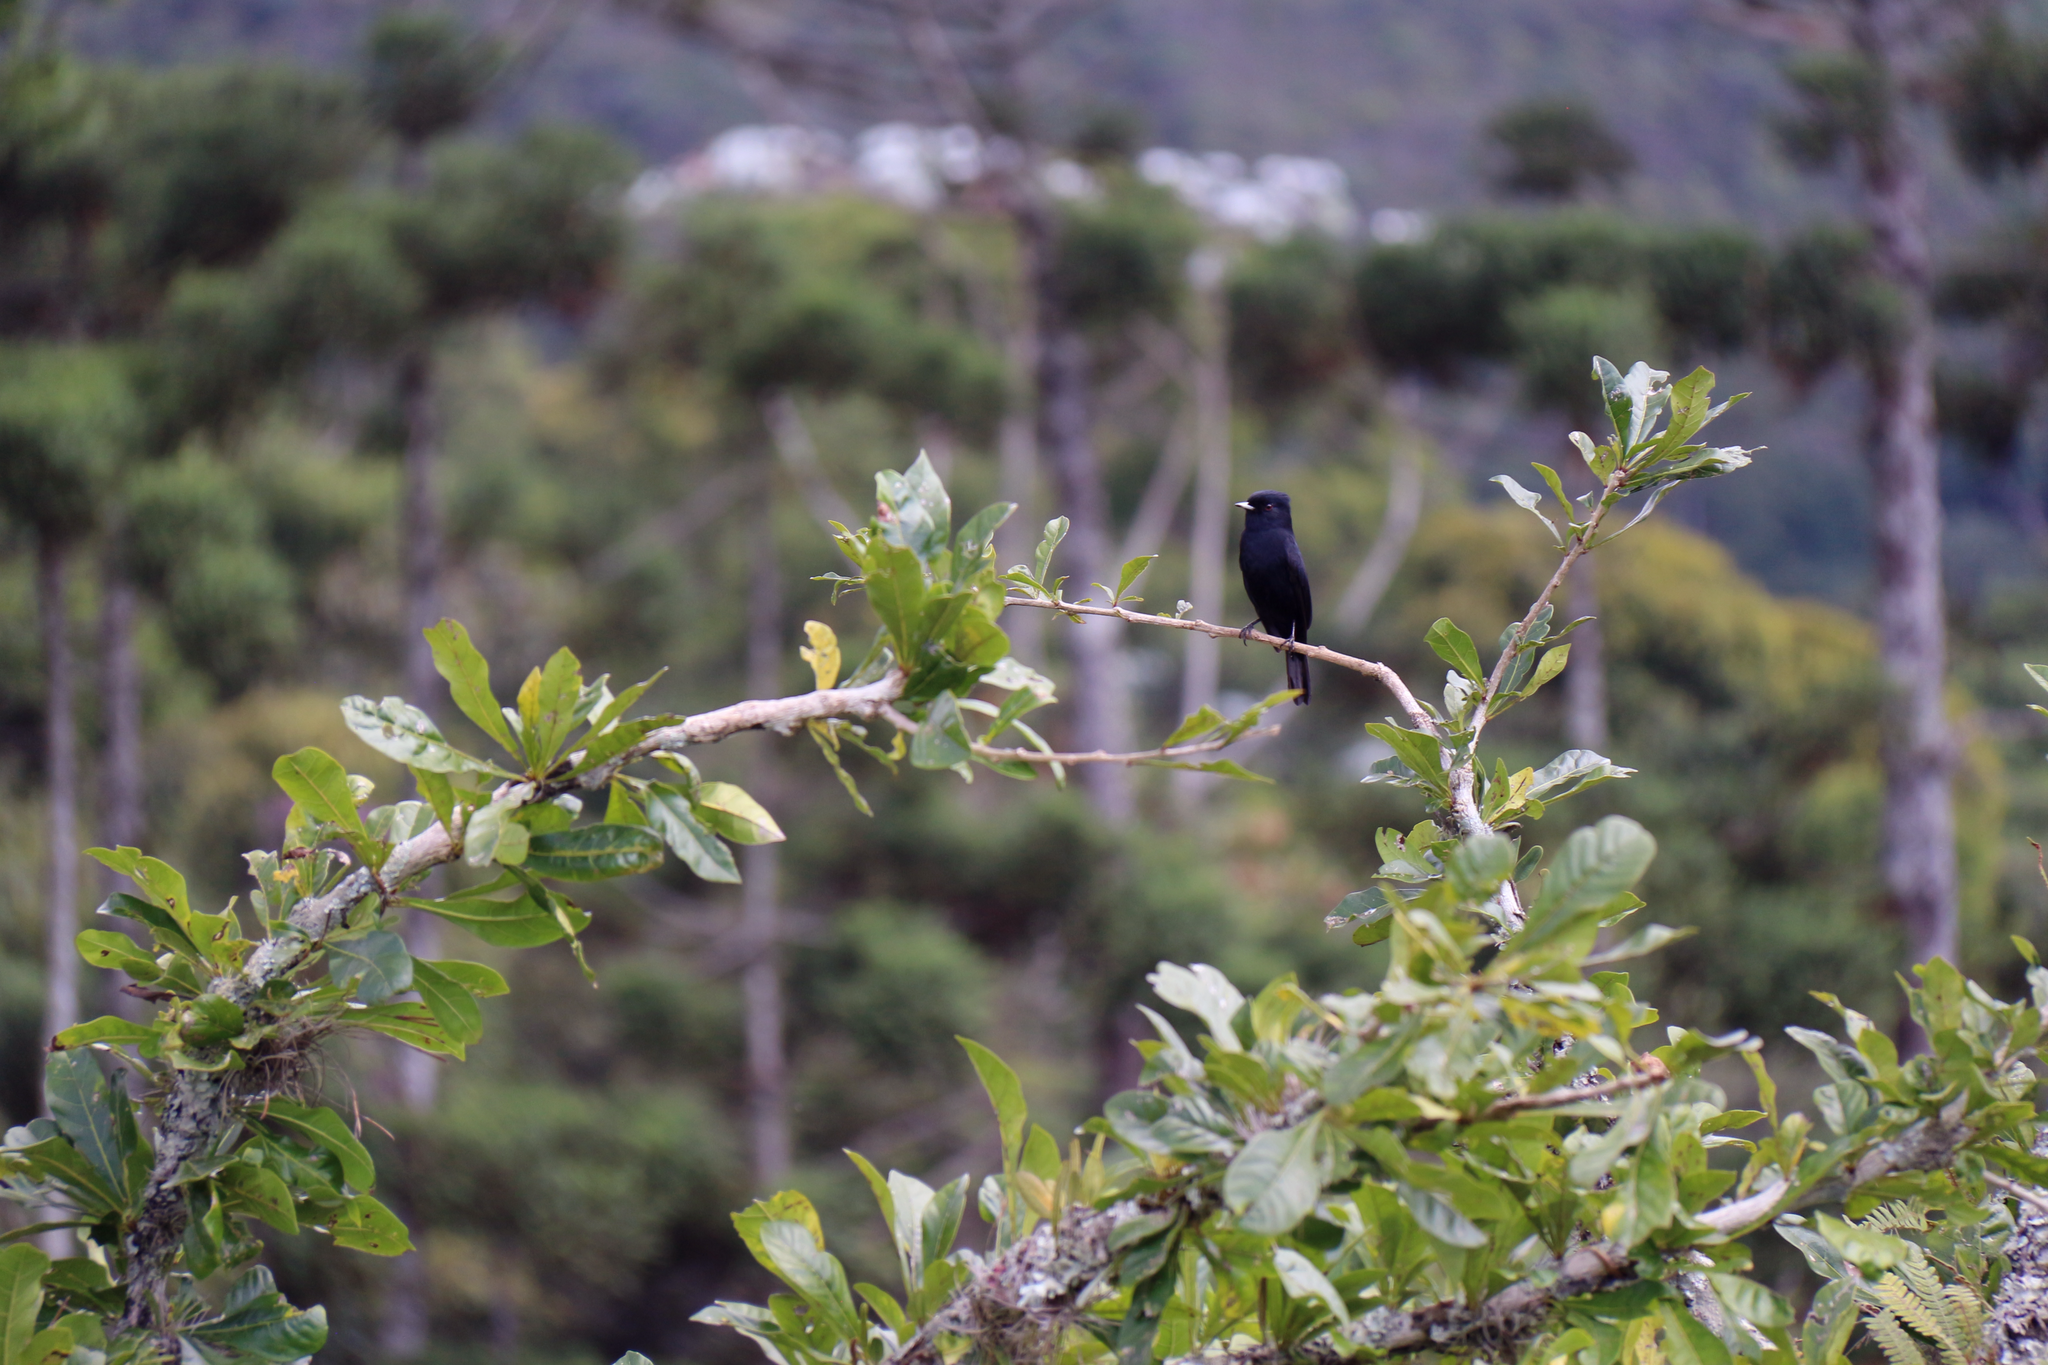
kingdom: Animalia
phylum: Chordata
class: Aves
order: Passeriformes
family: Tyrannidae
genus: Knipolegus
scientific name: Knipolegus nigerrimus
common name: Velvety black tyrant
